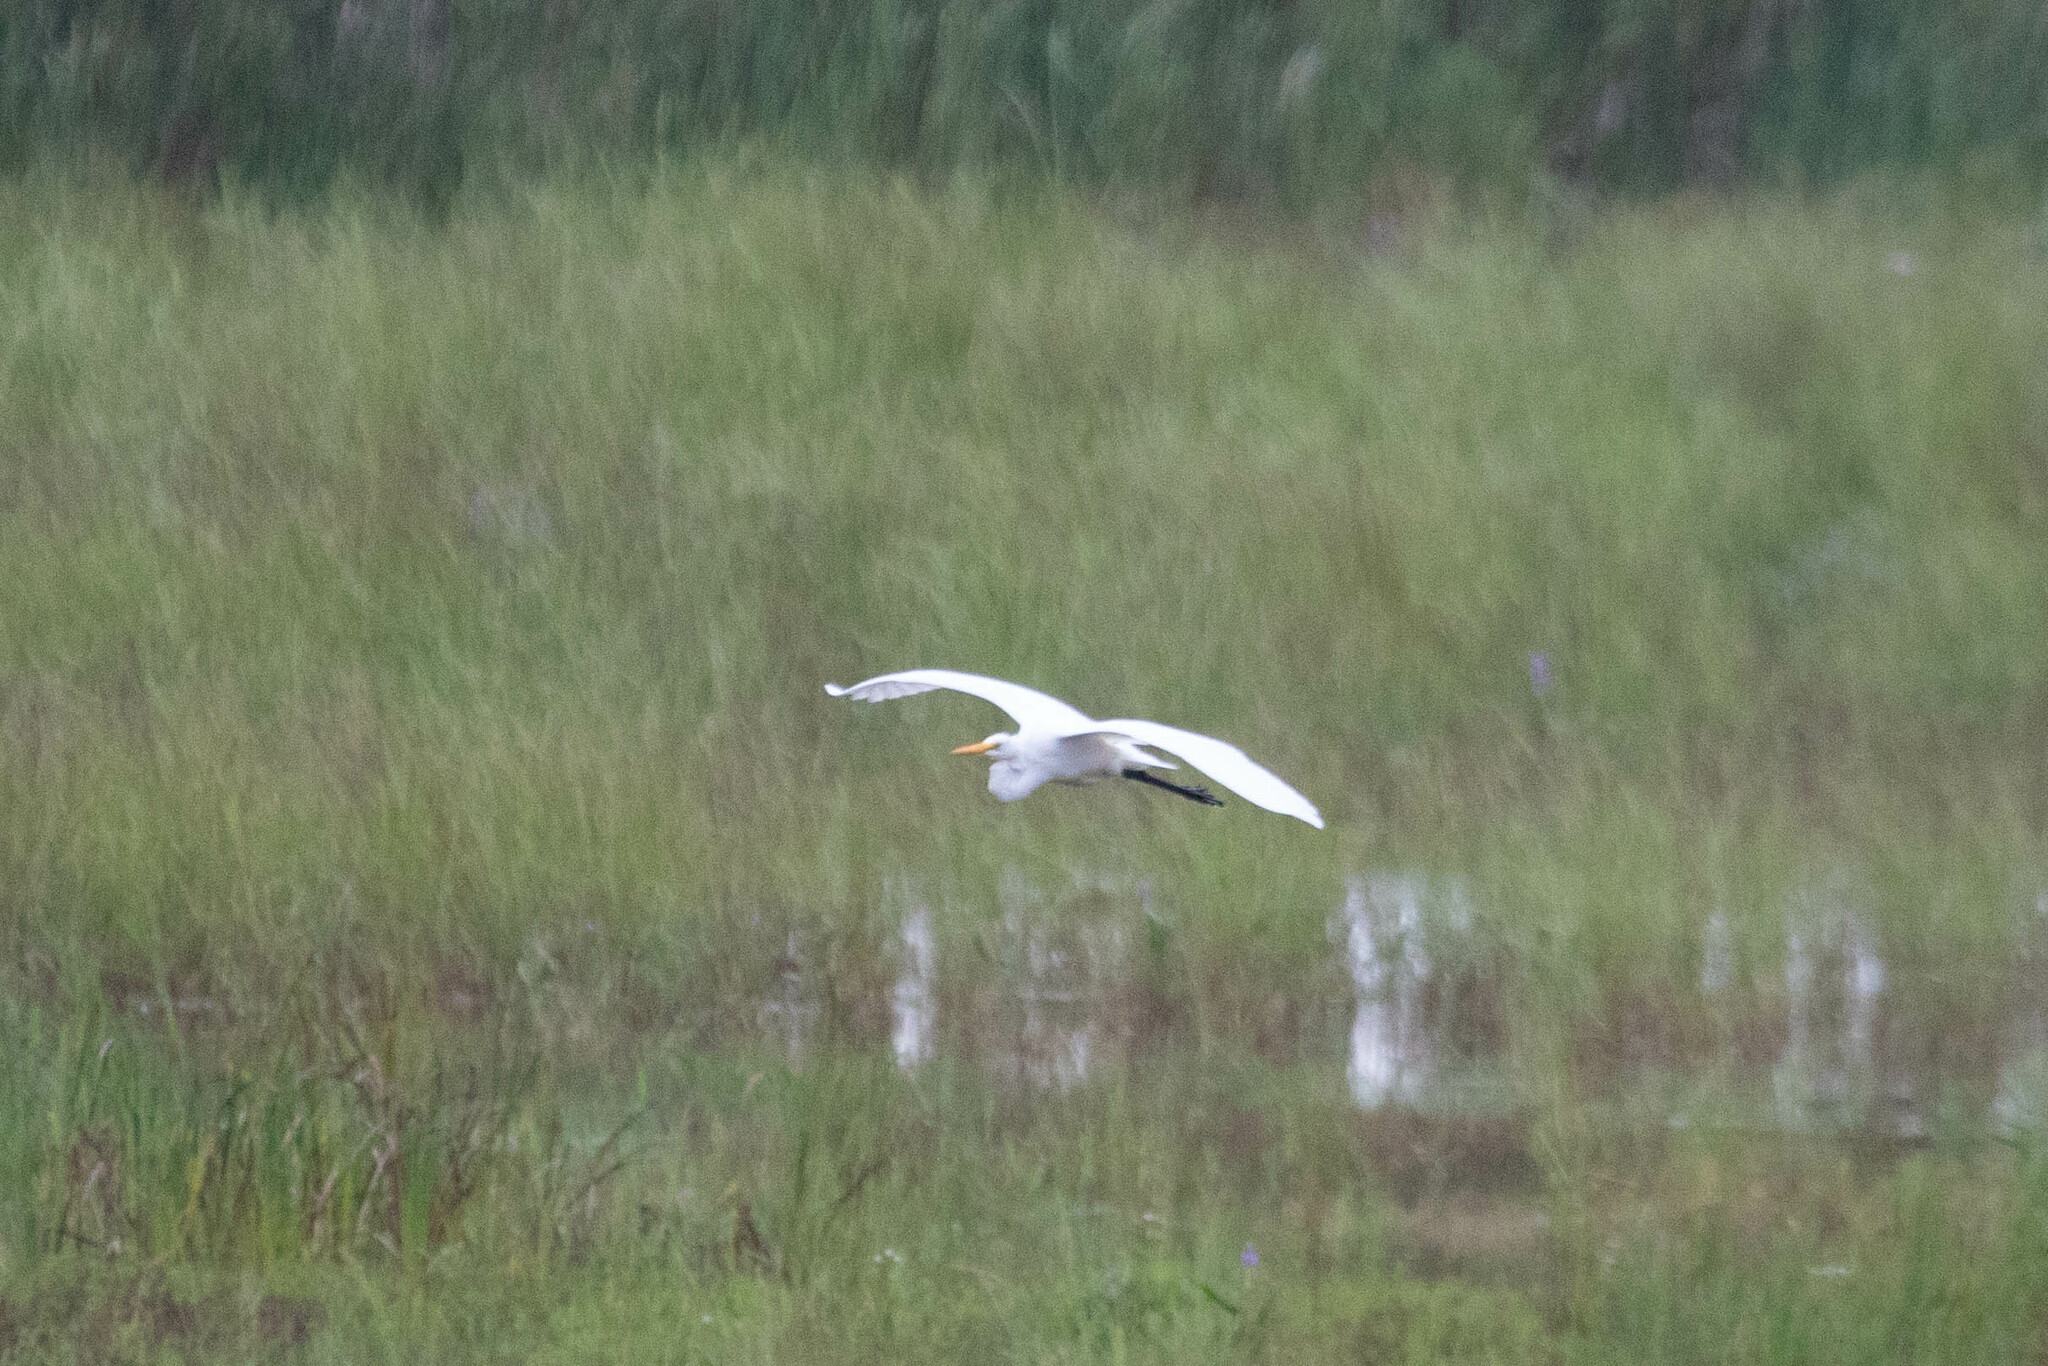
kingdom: Animalia
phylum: Chordata
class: Aves
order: Pelecaniformes
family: Ardeidae
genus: Ardea
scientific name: Ardea alba
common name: Great egret
